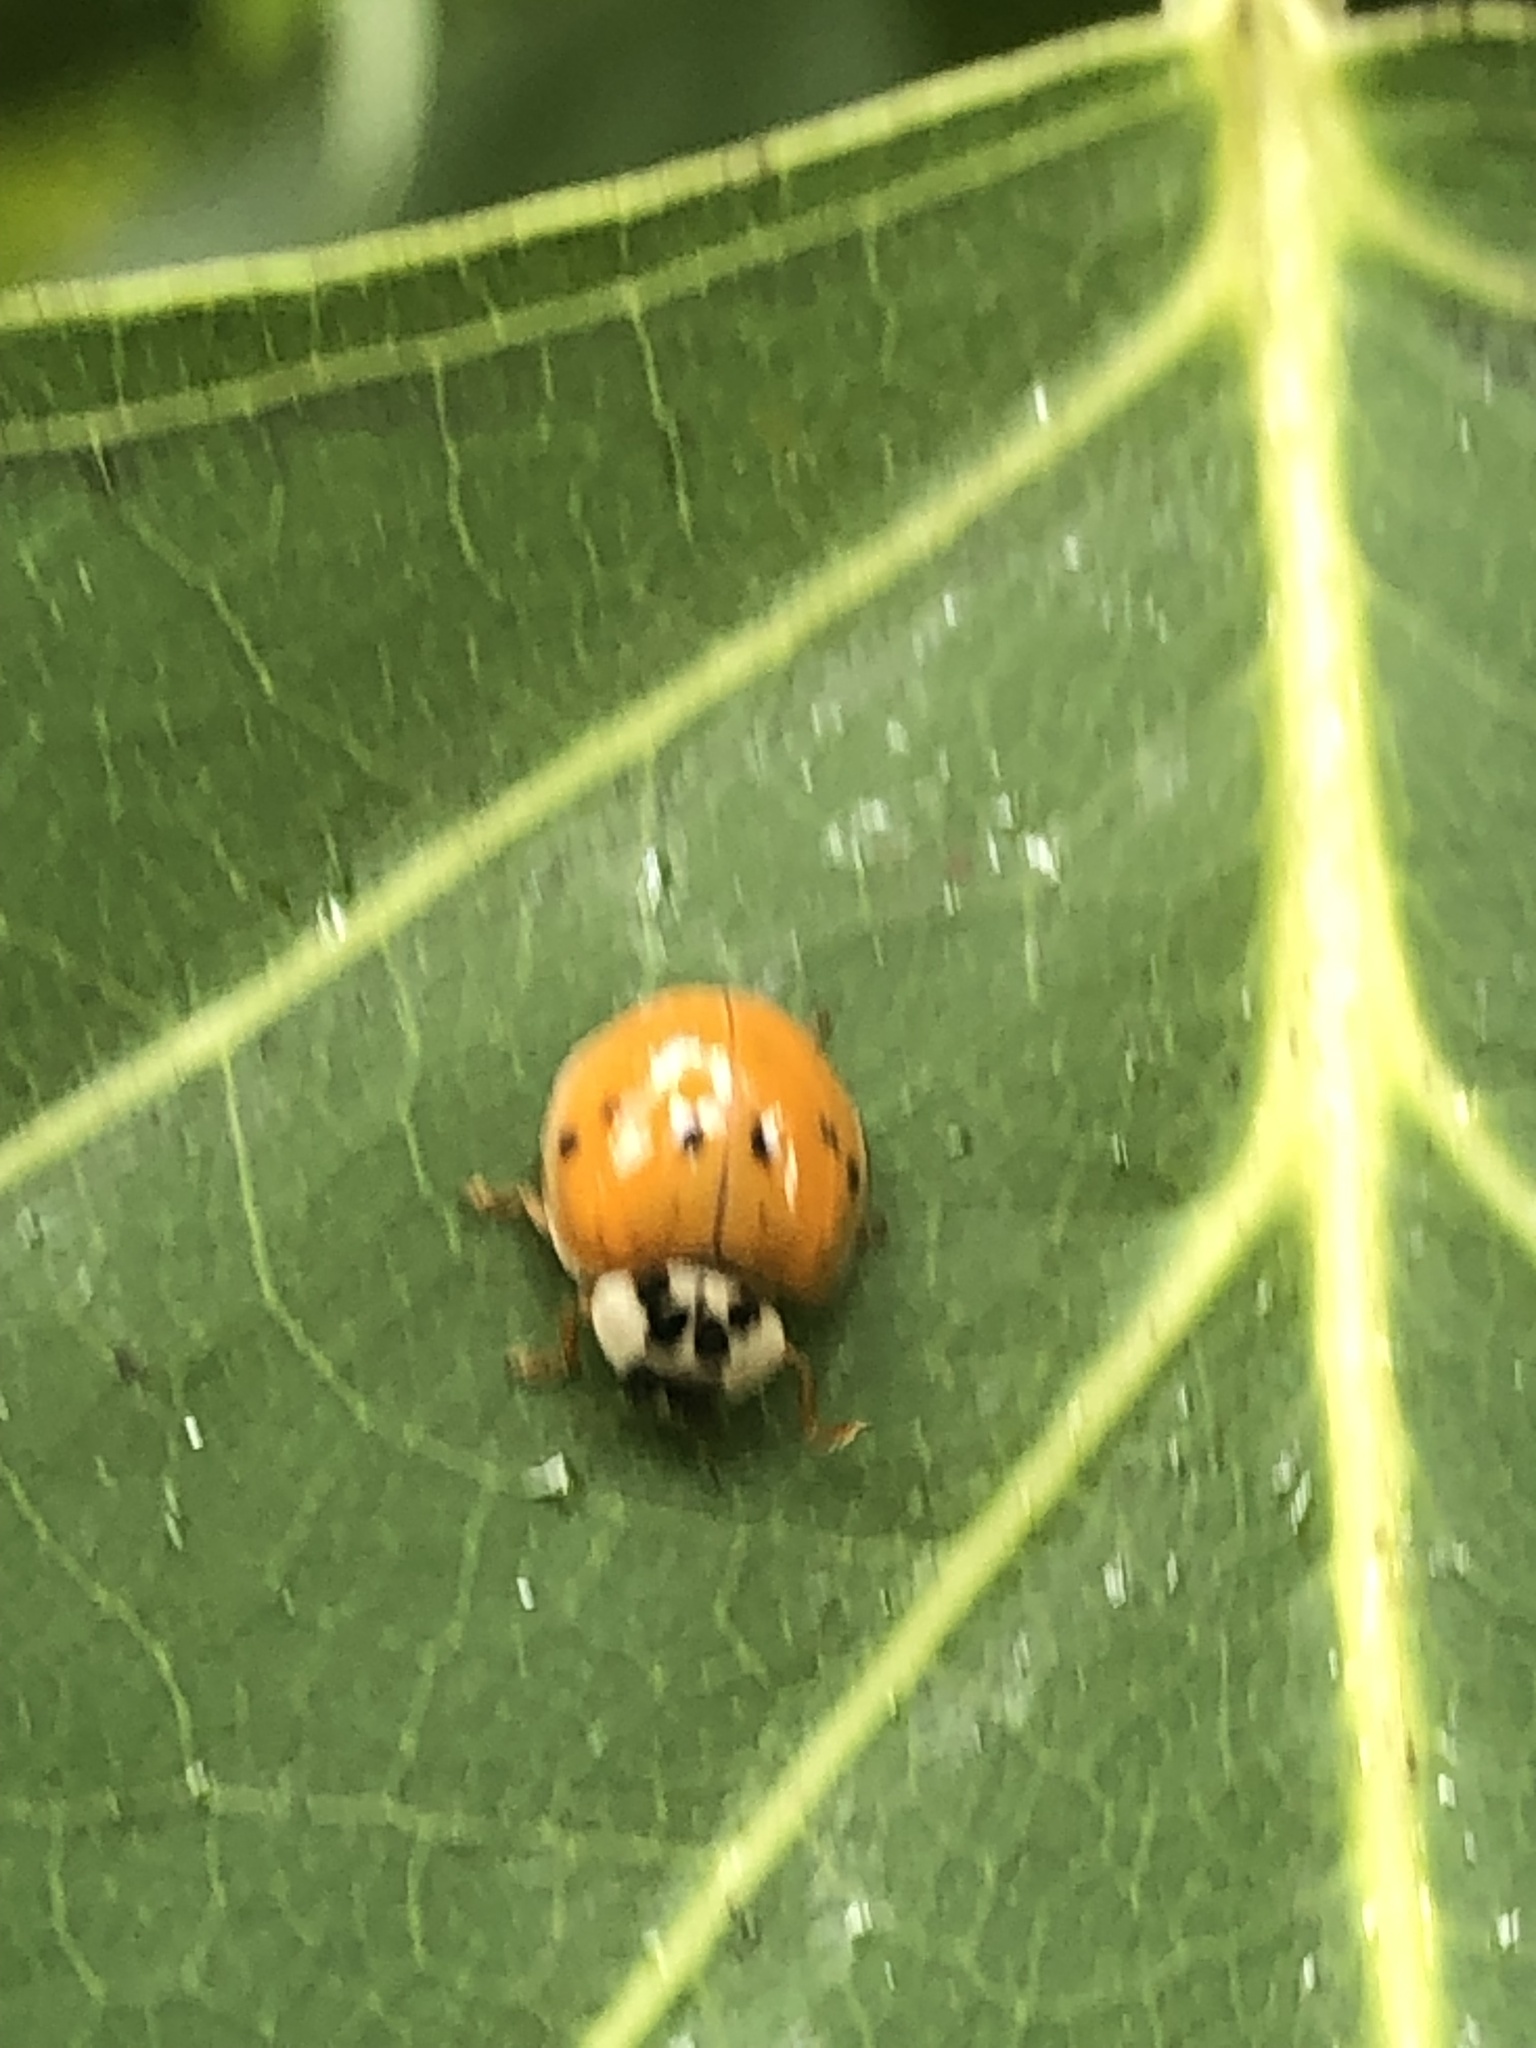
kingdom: Animalia
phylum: Arthropoda
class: Insecta
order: Coleoptera
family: Coccinellidae
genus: Harmonia
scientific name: Harmonia axyridis
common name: Harlequin ladybird
